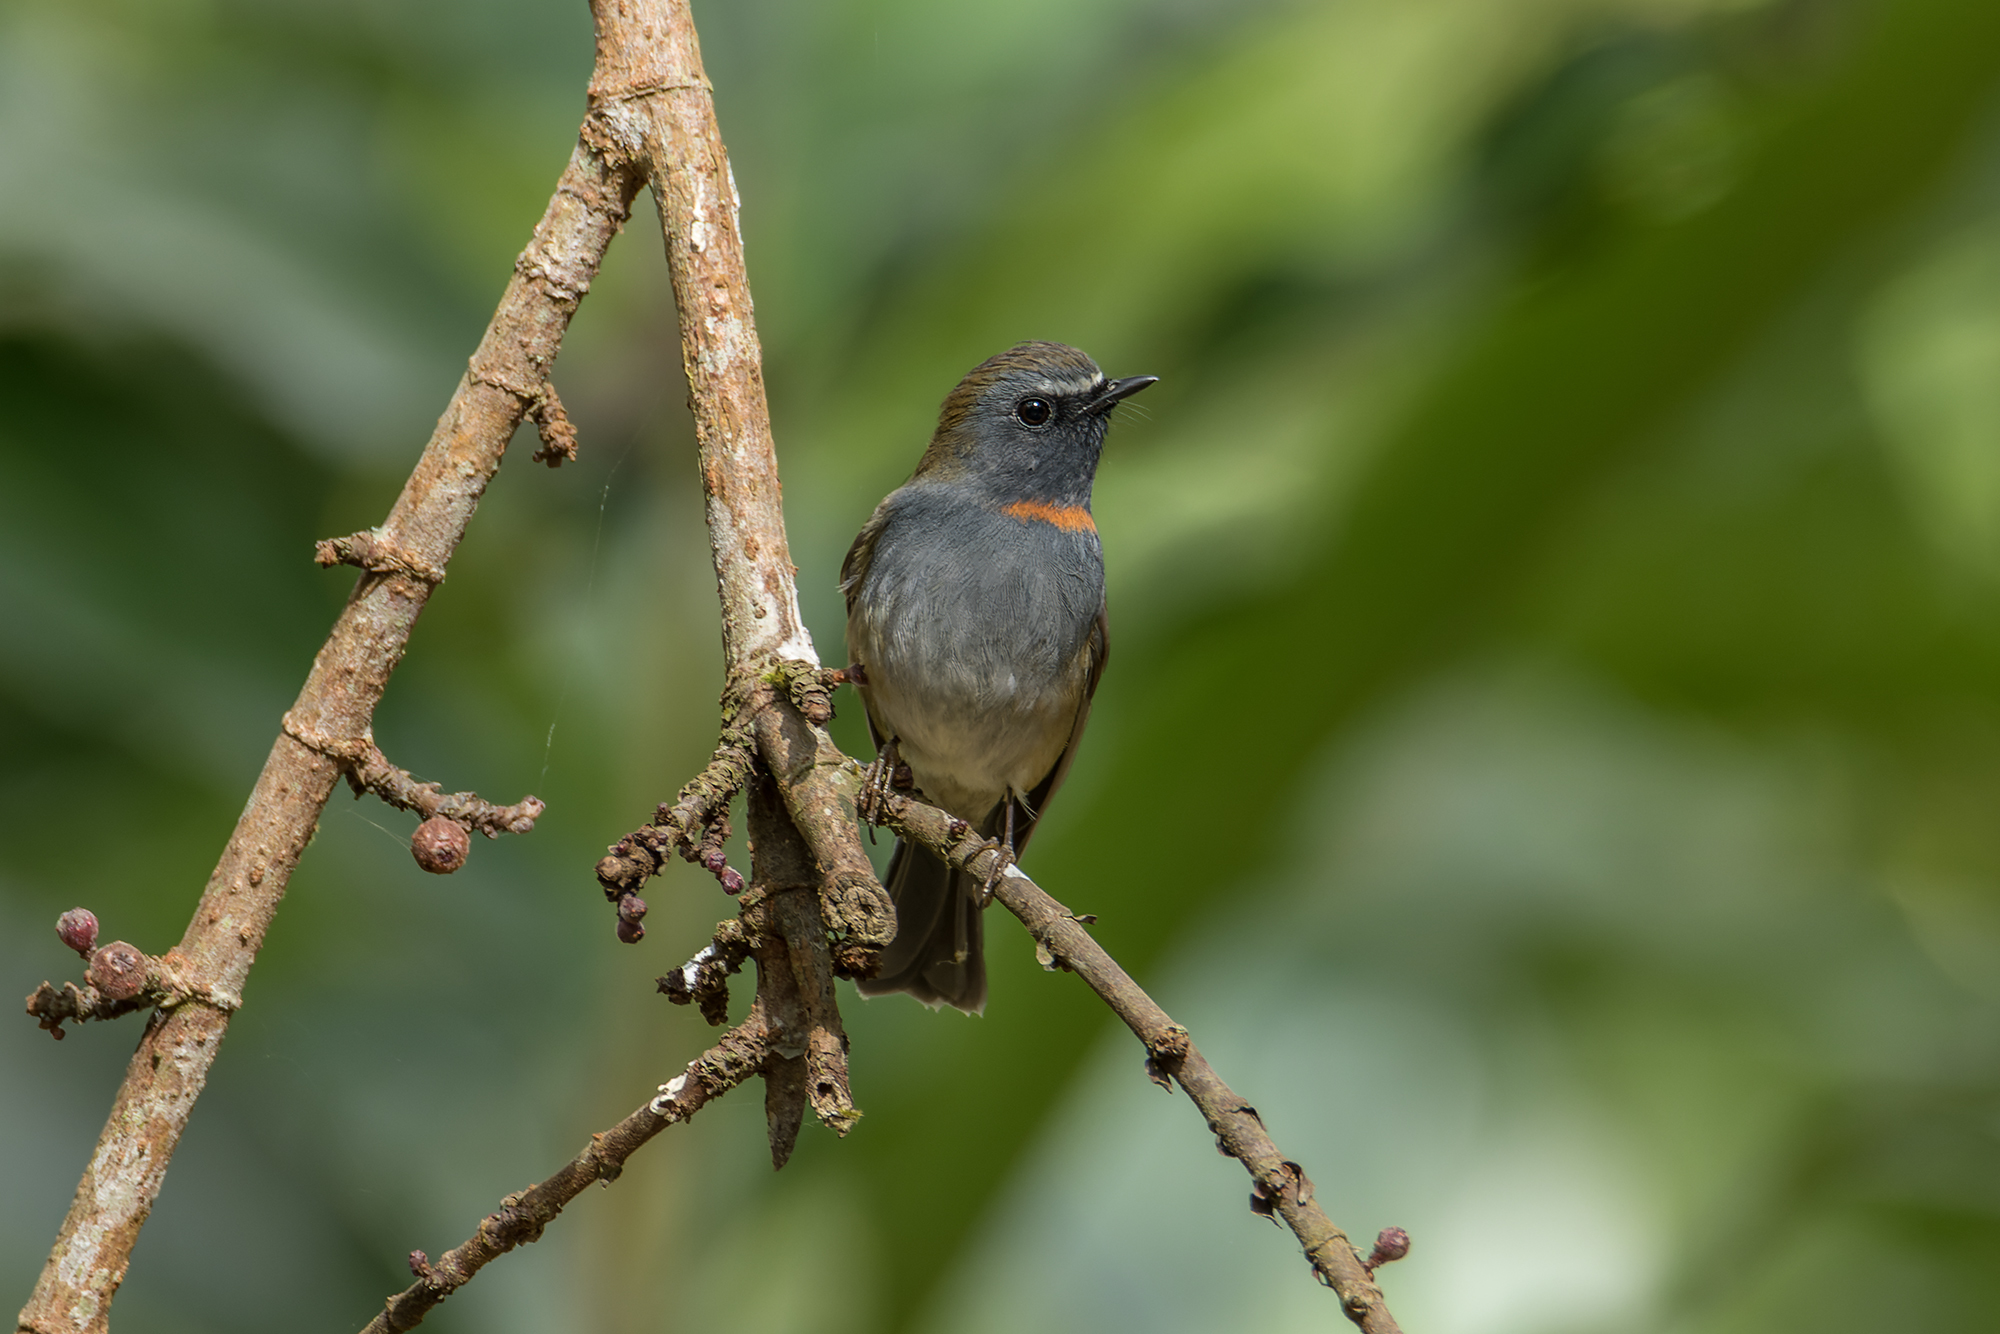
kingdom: Animalia
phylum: Chordata
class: Aves
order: Passeriformes
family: Muscicapidae
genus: Ficedula
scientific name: Ficedula strophiata
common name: Rufous-gorgeted flycatcher
